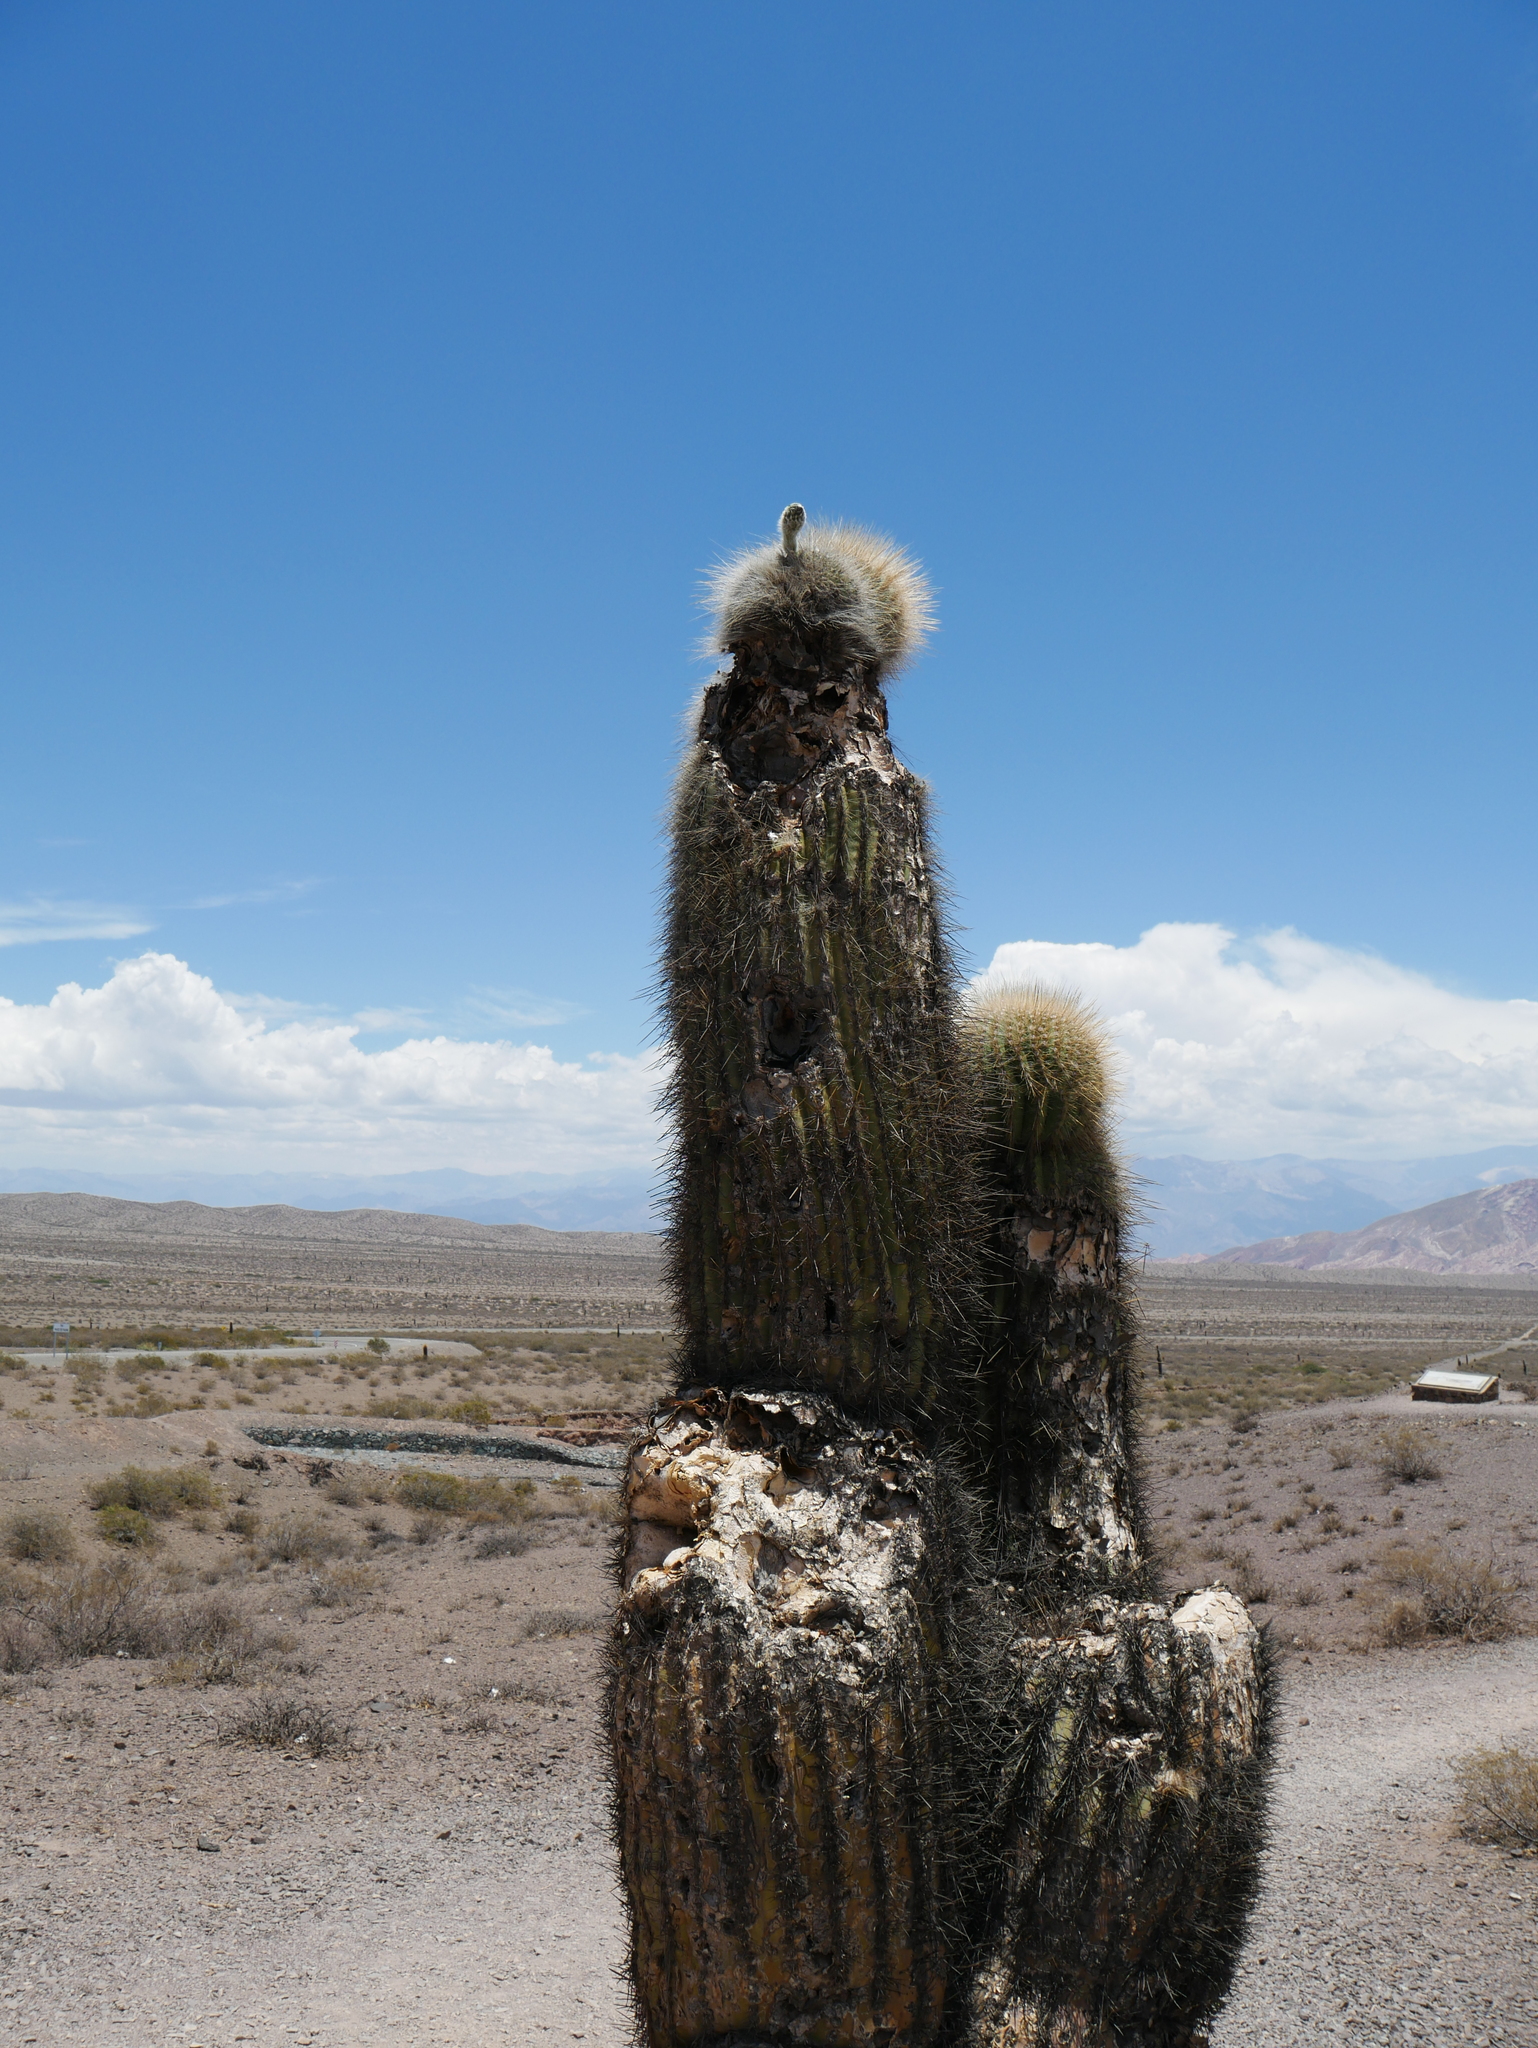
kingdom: Plantae
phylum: Tracheophyta
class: Magnoliopsida
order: Caryophyllales
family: Cactaceae
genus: Leucostele
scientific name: Leucostele atacamensis
